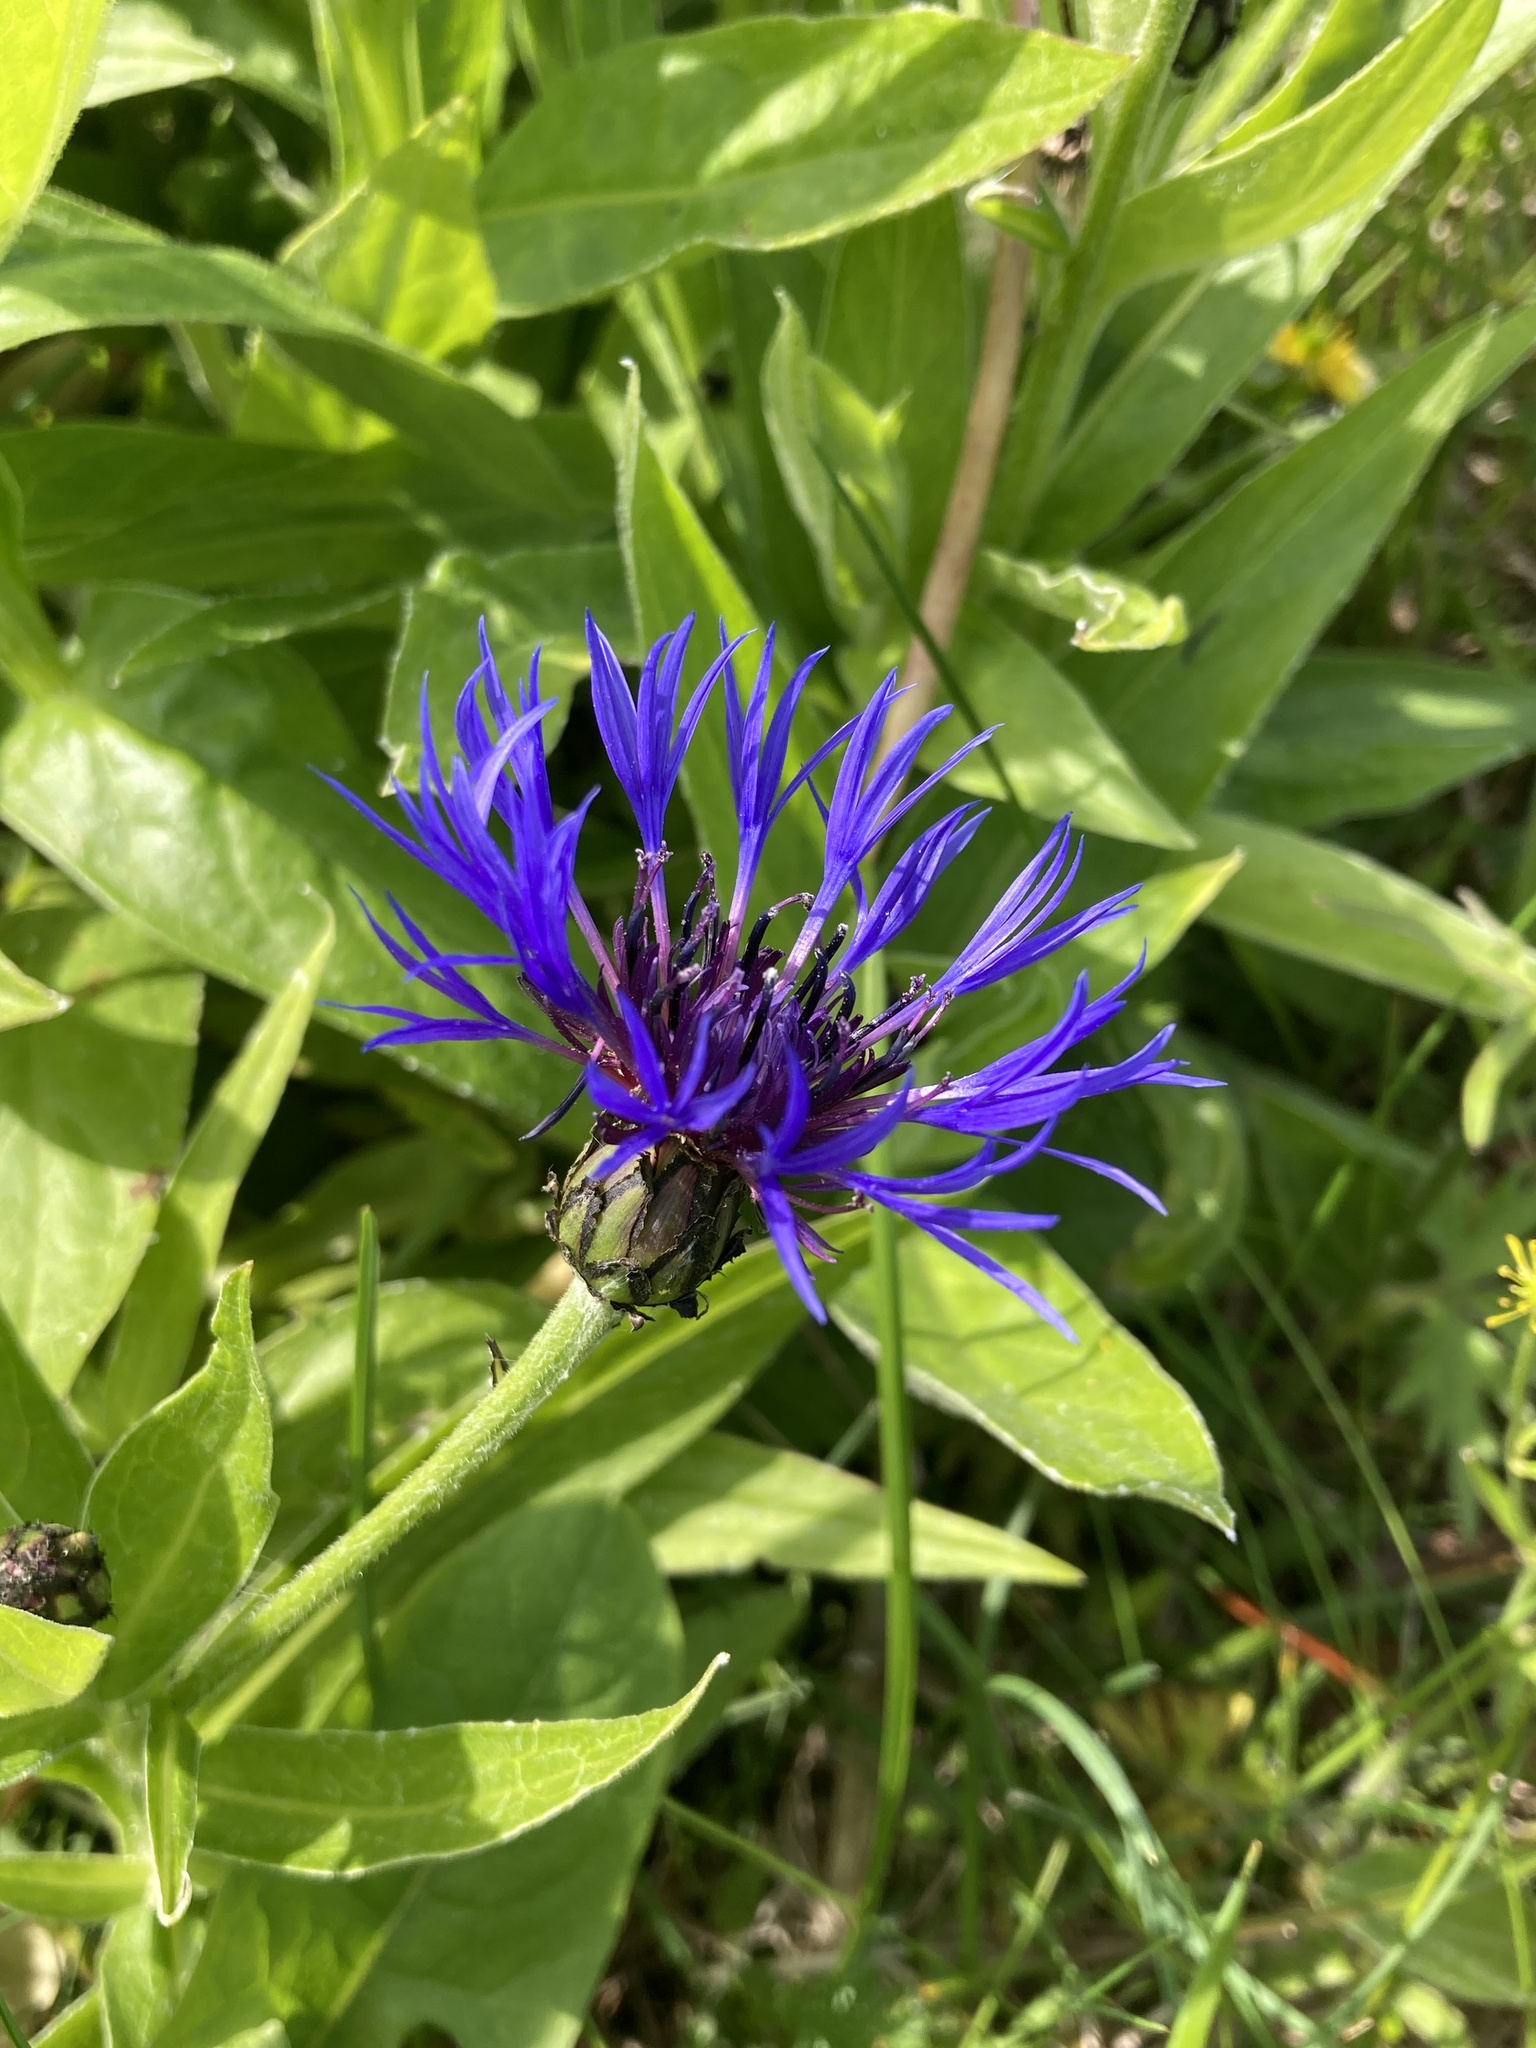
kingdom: Plantae
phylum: Tracheophyta
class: Magnoliopsida
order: Asterales
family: Asteraceae
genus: Centaurea
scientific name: Centaurea montana
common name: Perennial cornflower
